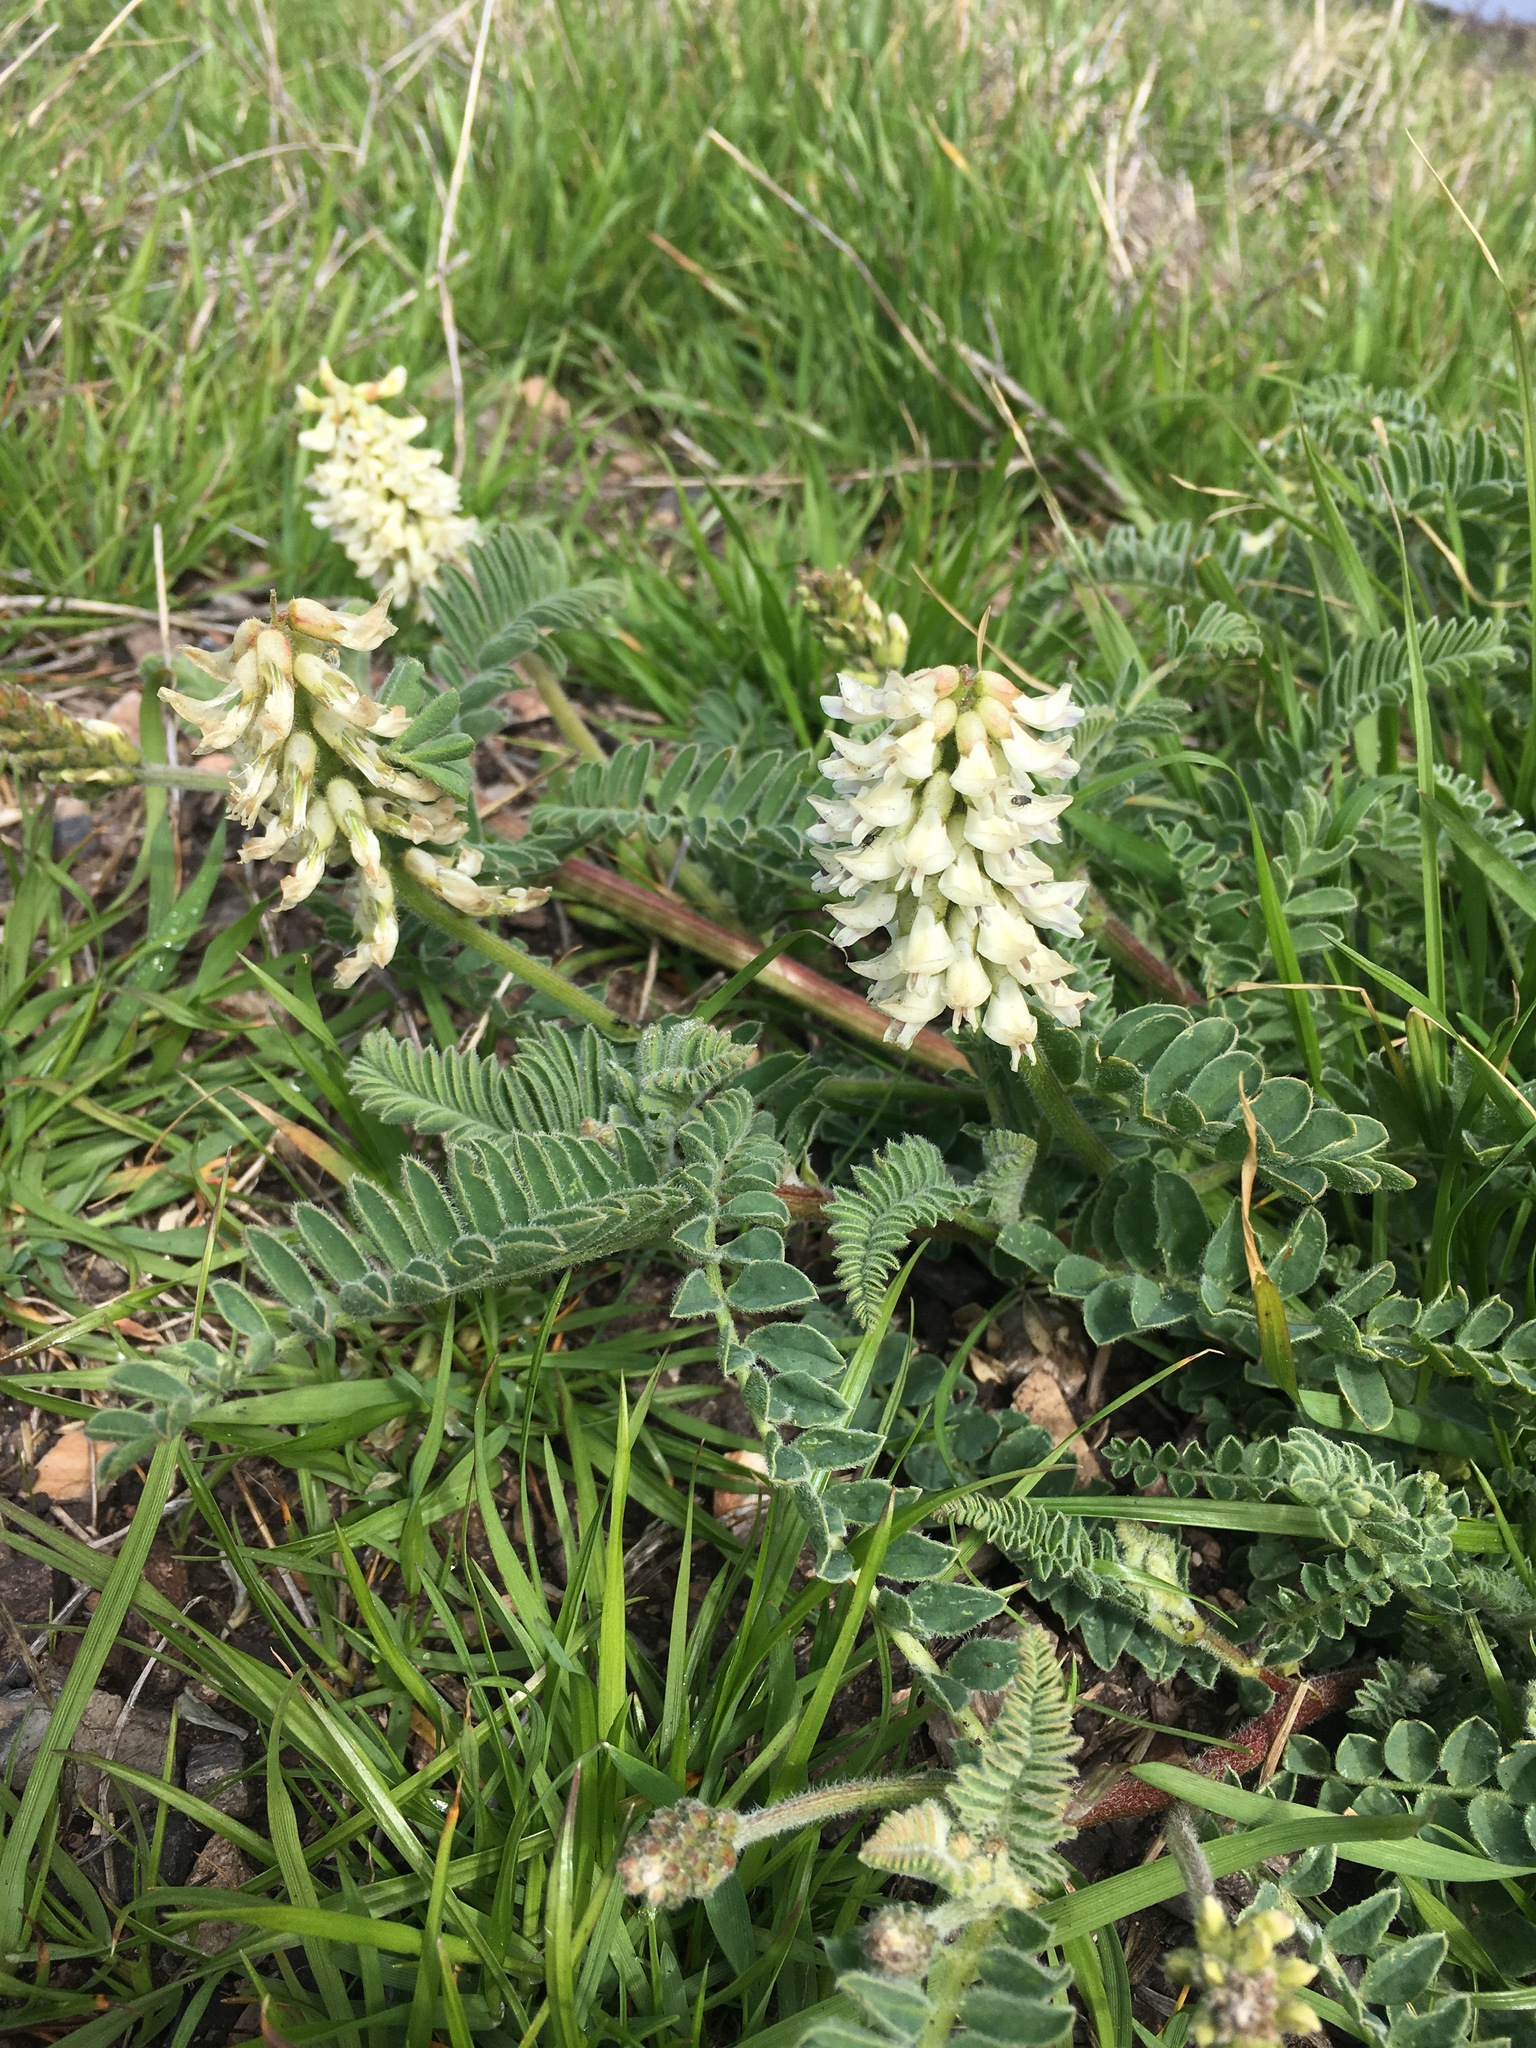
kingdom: Plantae
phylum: Tracheophyta
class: Magnoliopsida
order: Fabales
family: Fabaceae
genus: Astragalus
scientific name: Astragalus nuttallii
